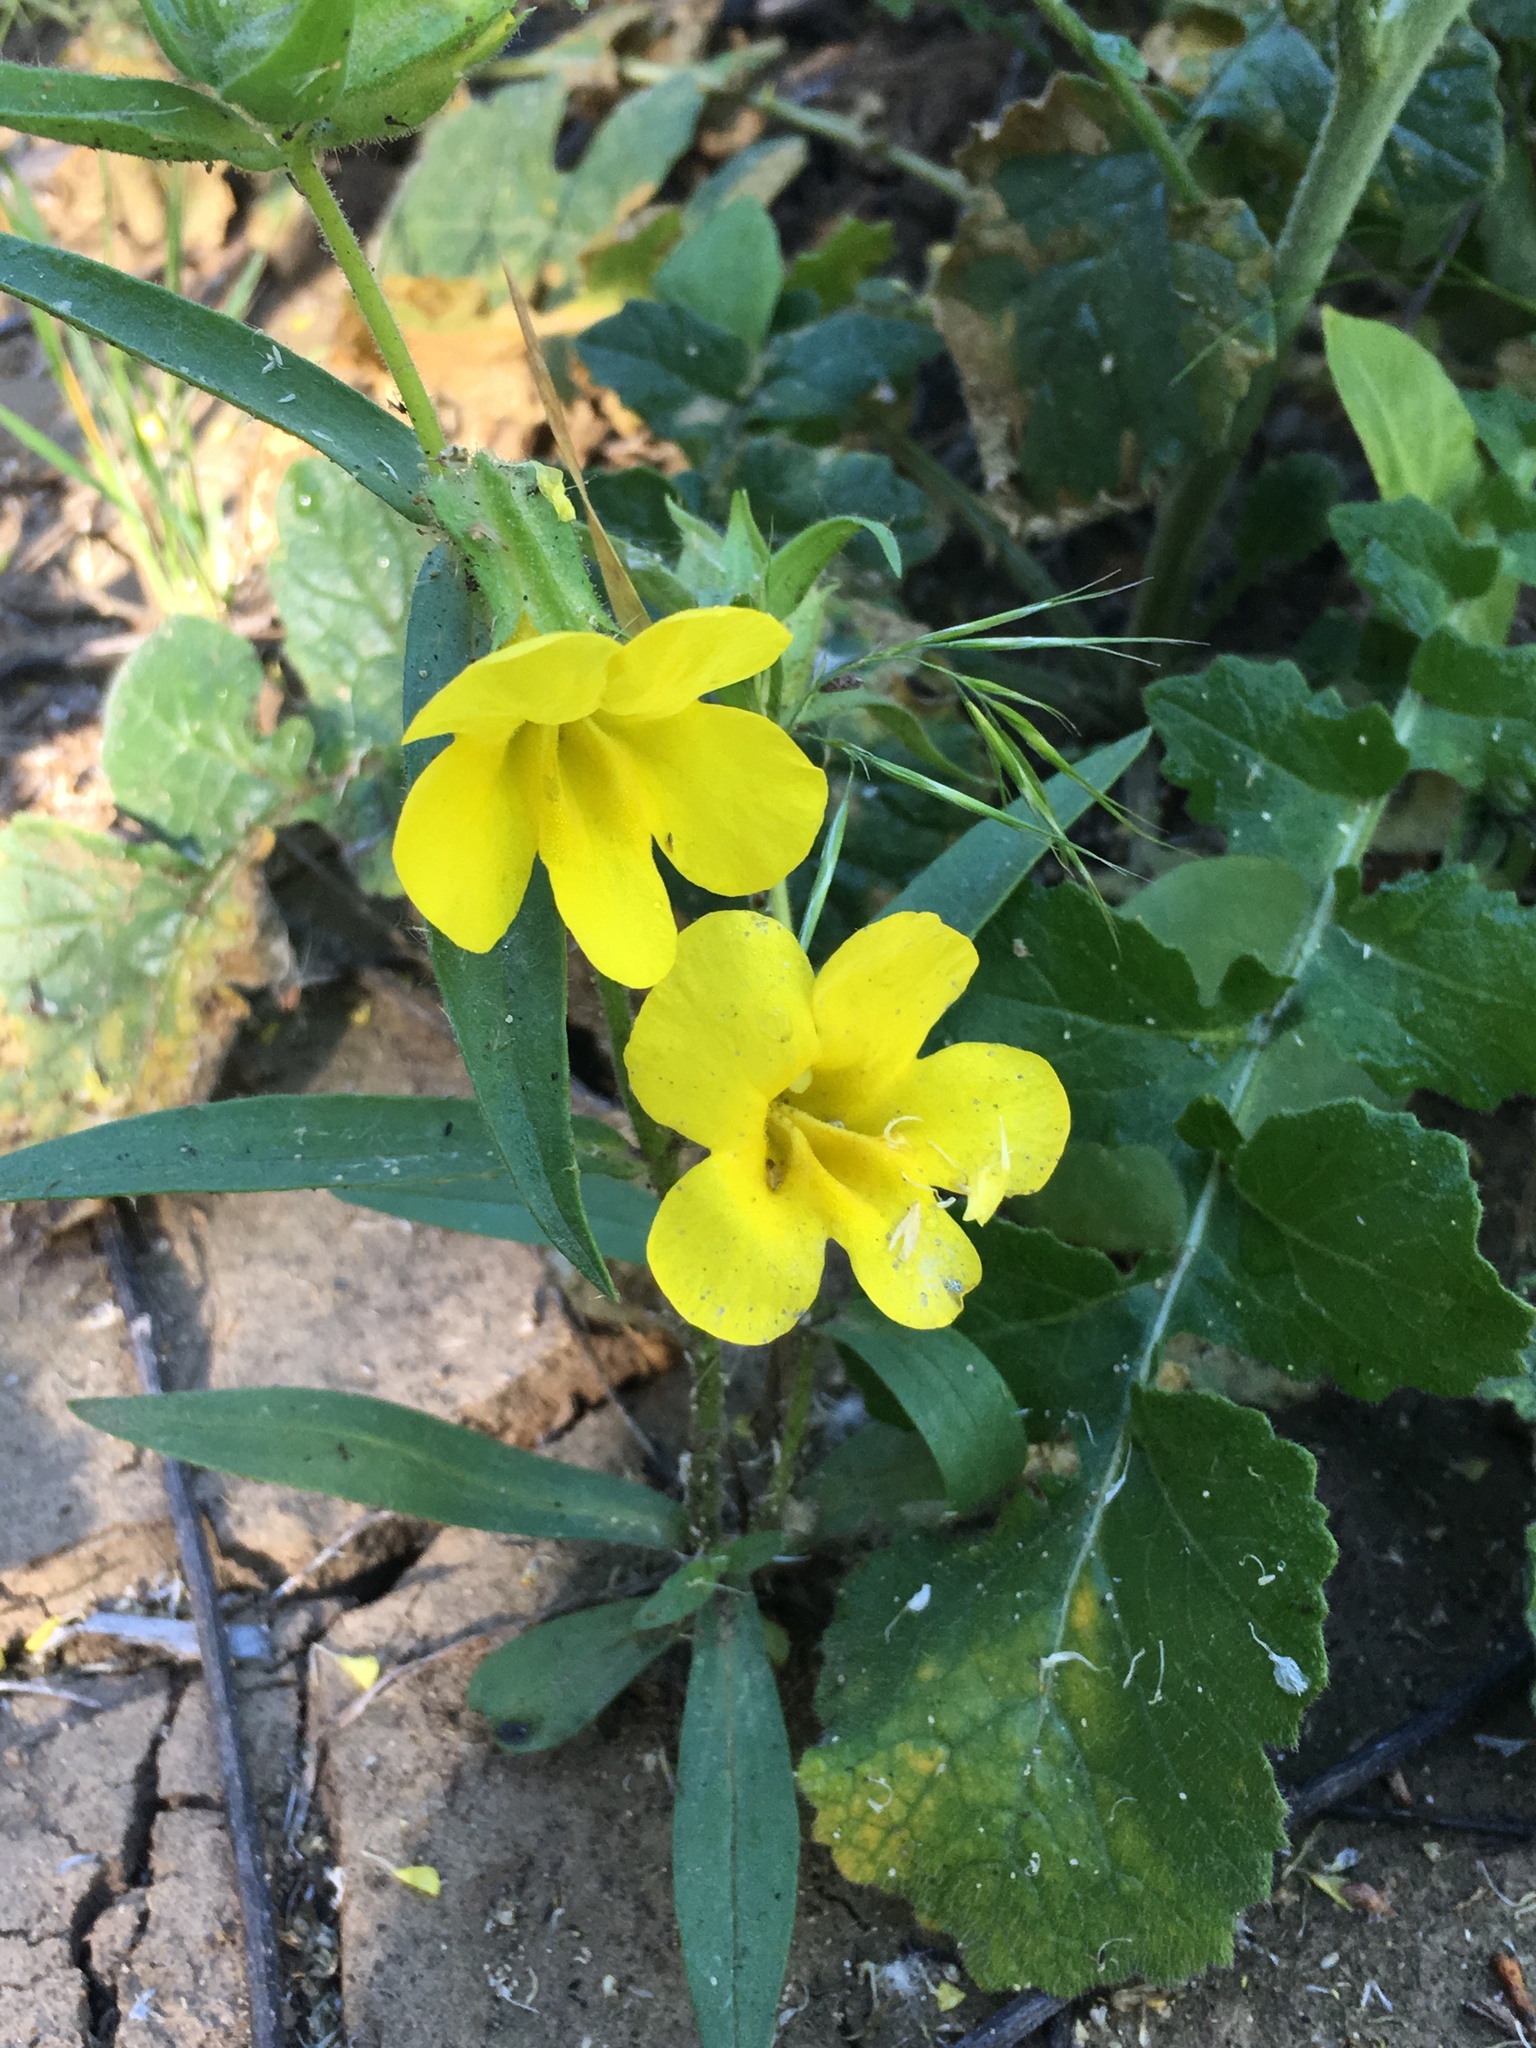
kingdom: Plantae
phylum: Tracheophyta
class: Magnoliopsida
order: Lamiales
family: Phrymaceae
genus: Diplacus
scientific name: Diplacus brevipes
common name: Wide-throat yellow monkey-flower
